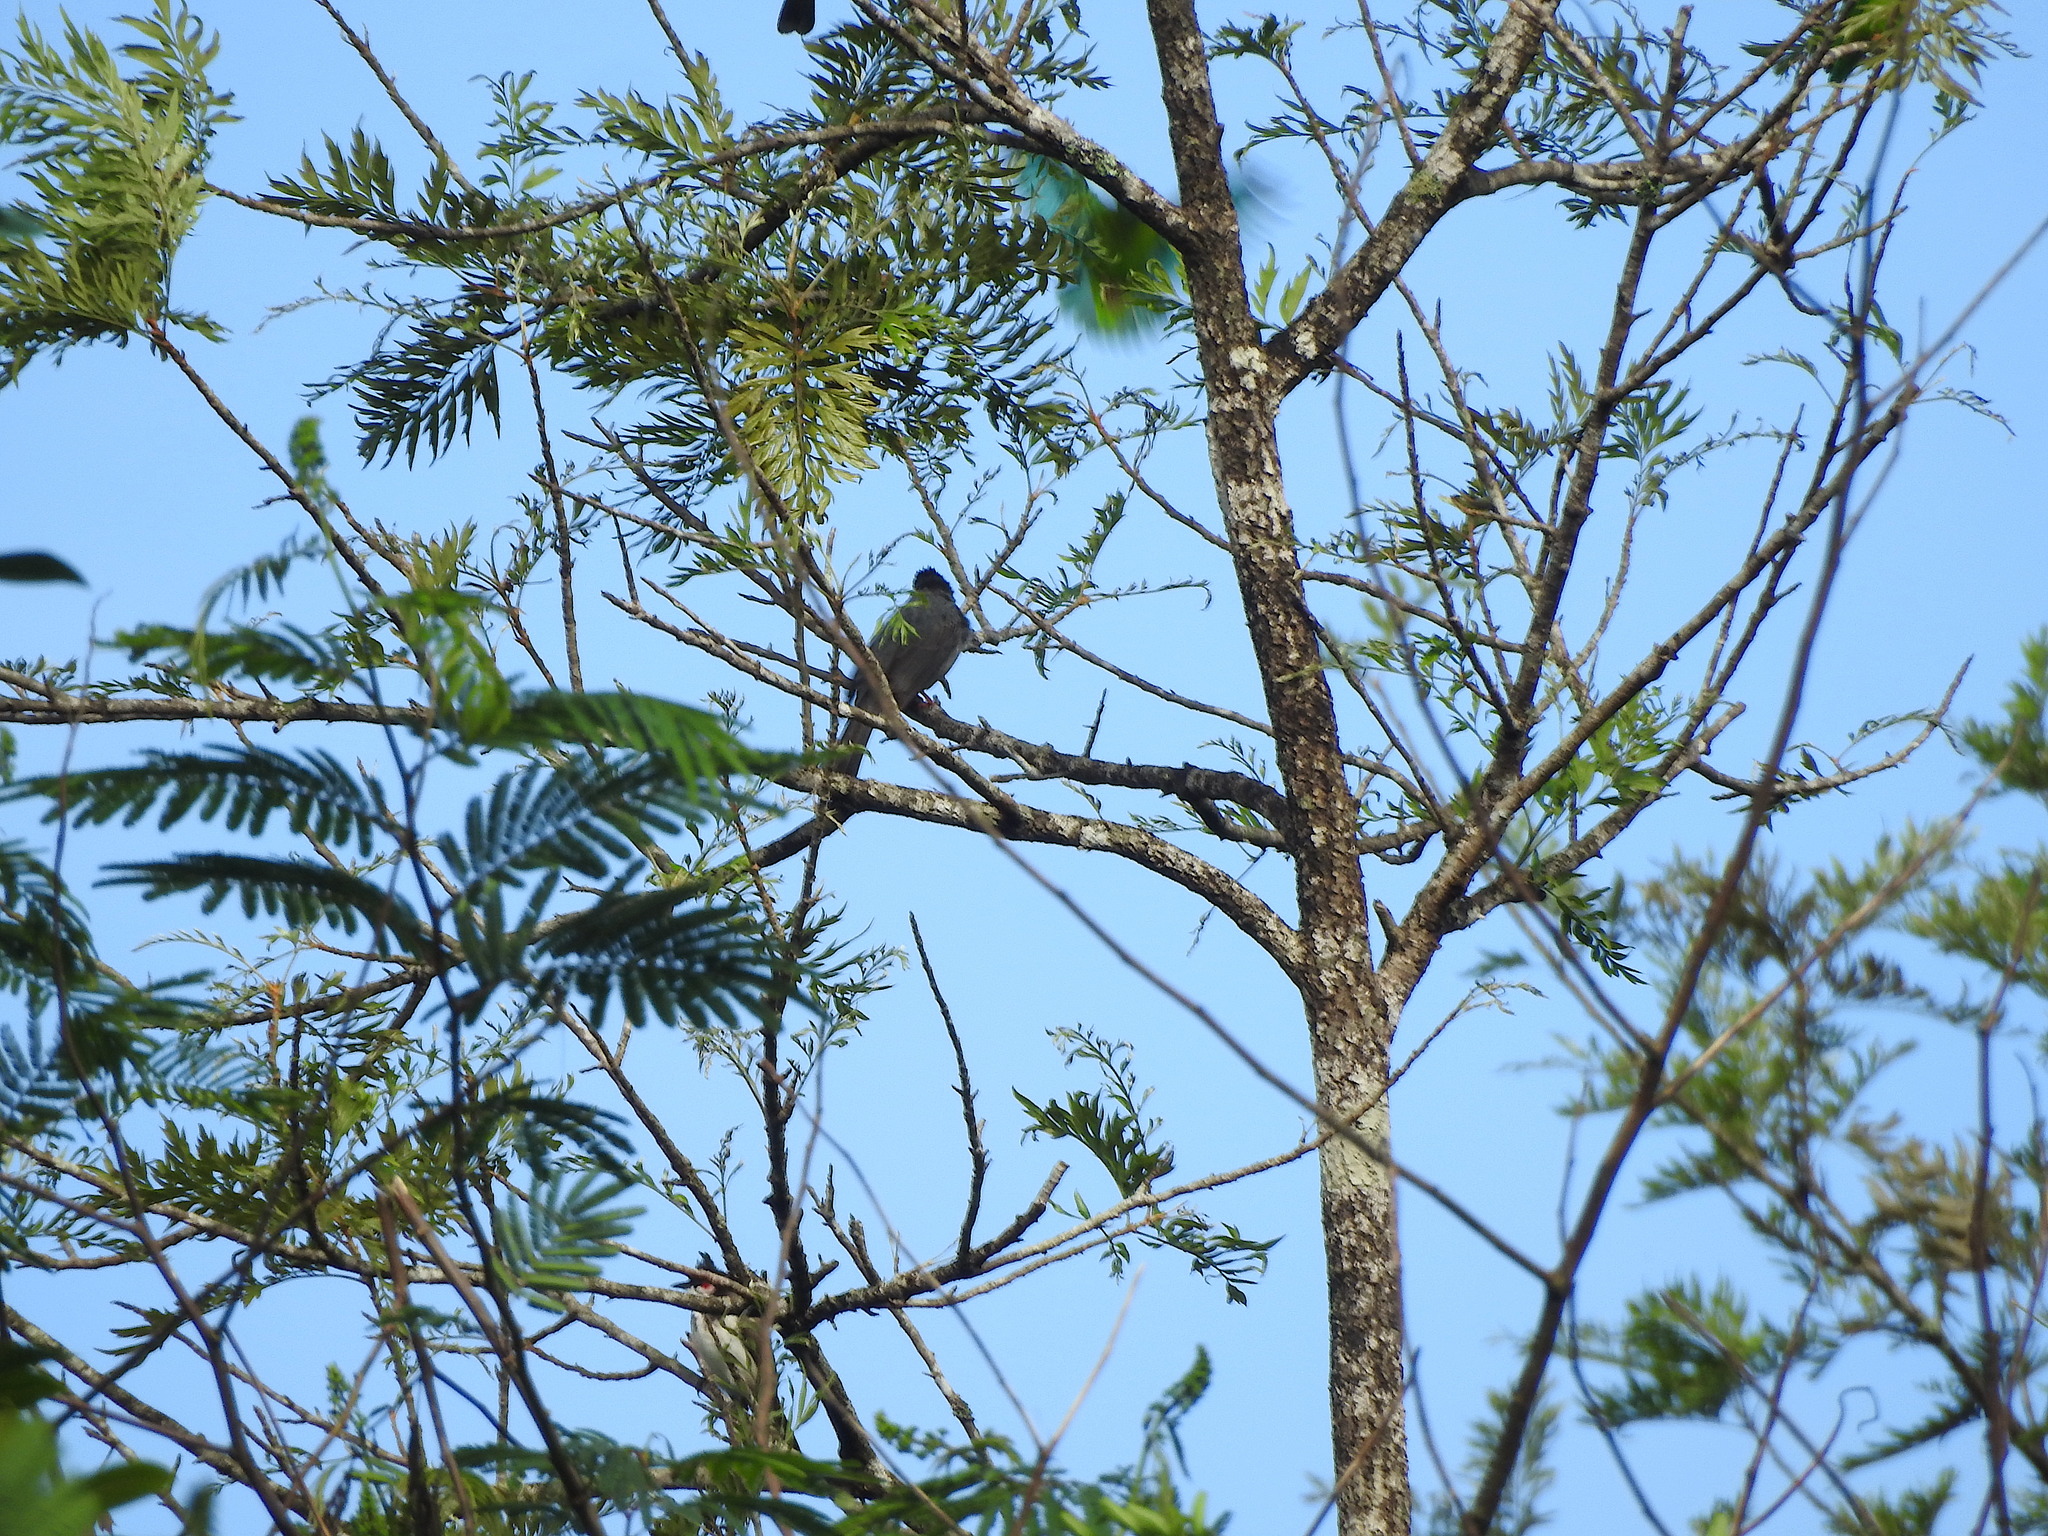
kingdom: Animalia
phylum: Chordata
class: Aves
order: Passeriformes
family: Pycnonotidae
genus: Hypsipetes
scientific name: Hypsipetes ganeesa
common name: Square-tailed bulbul
